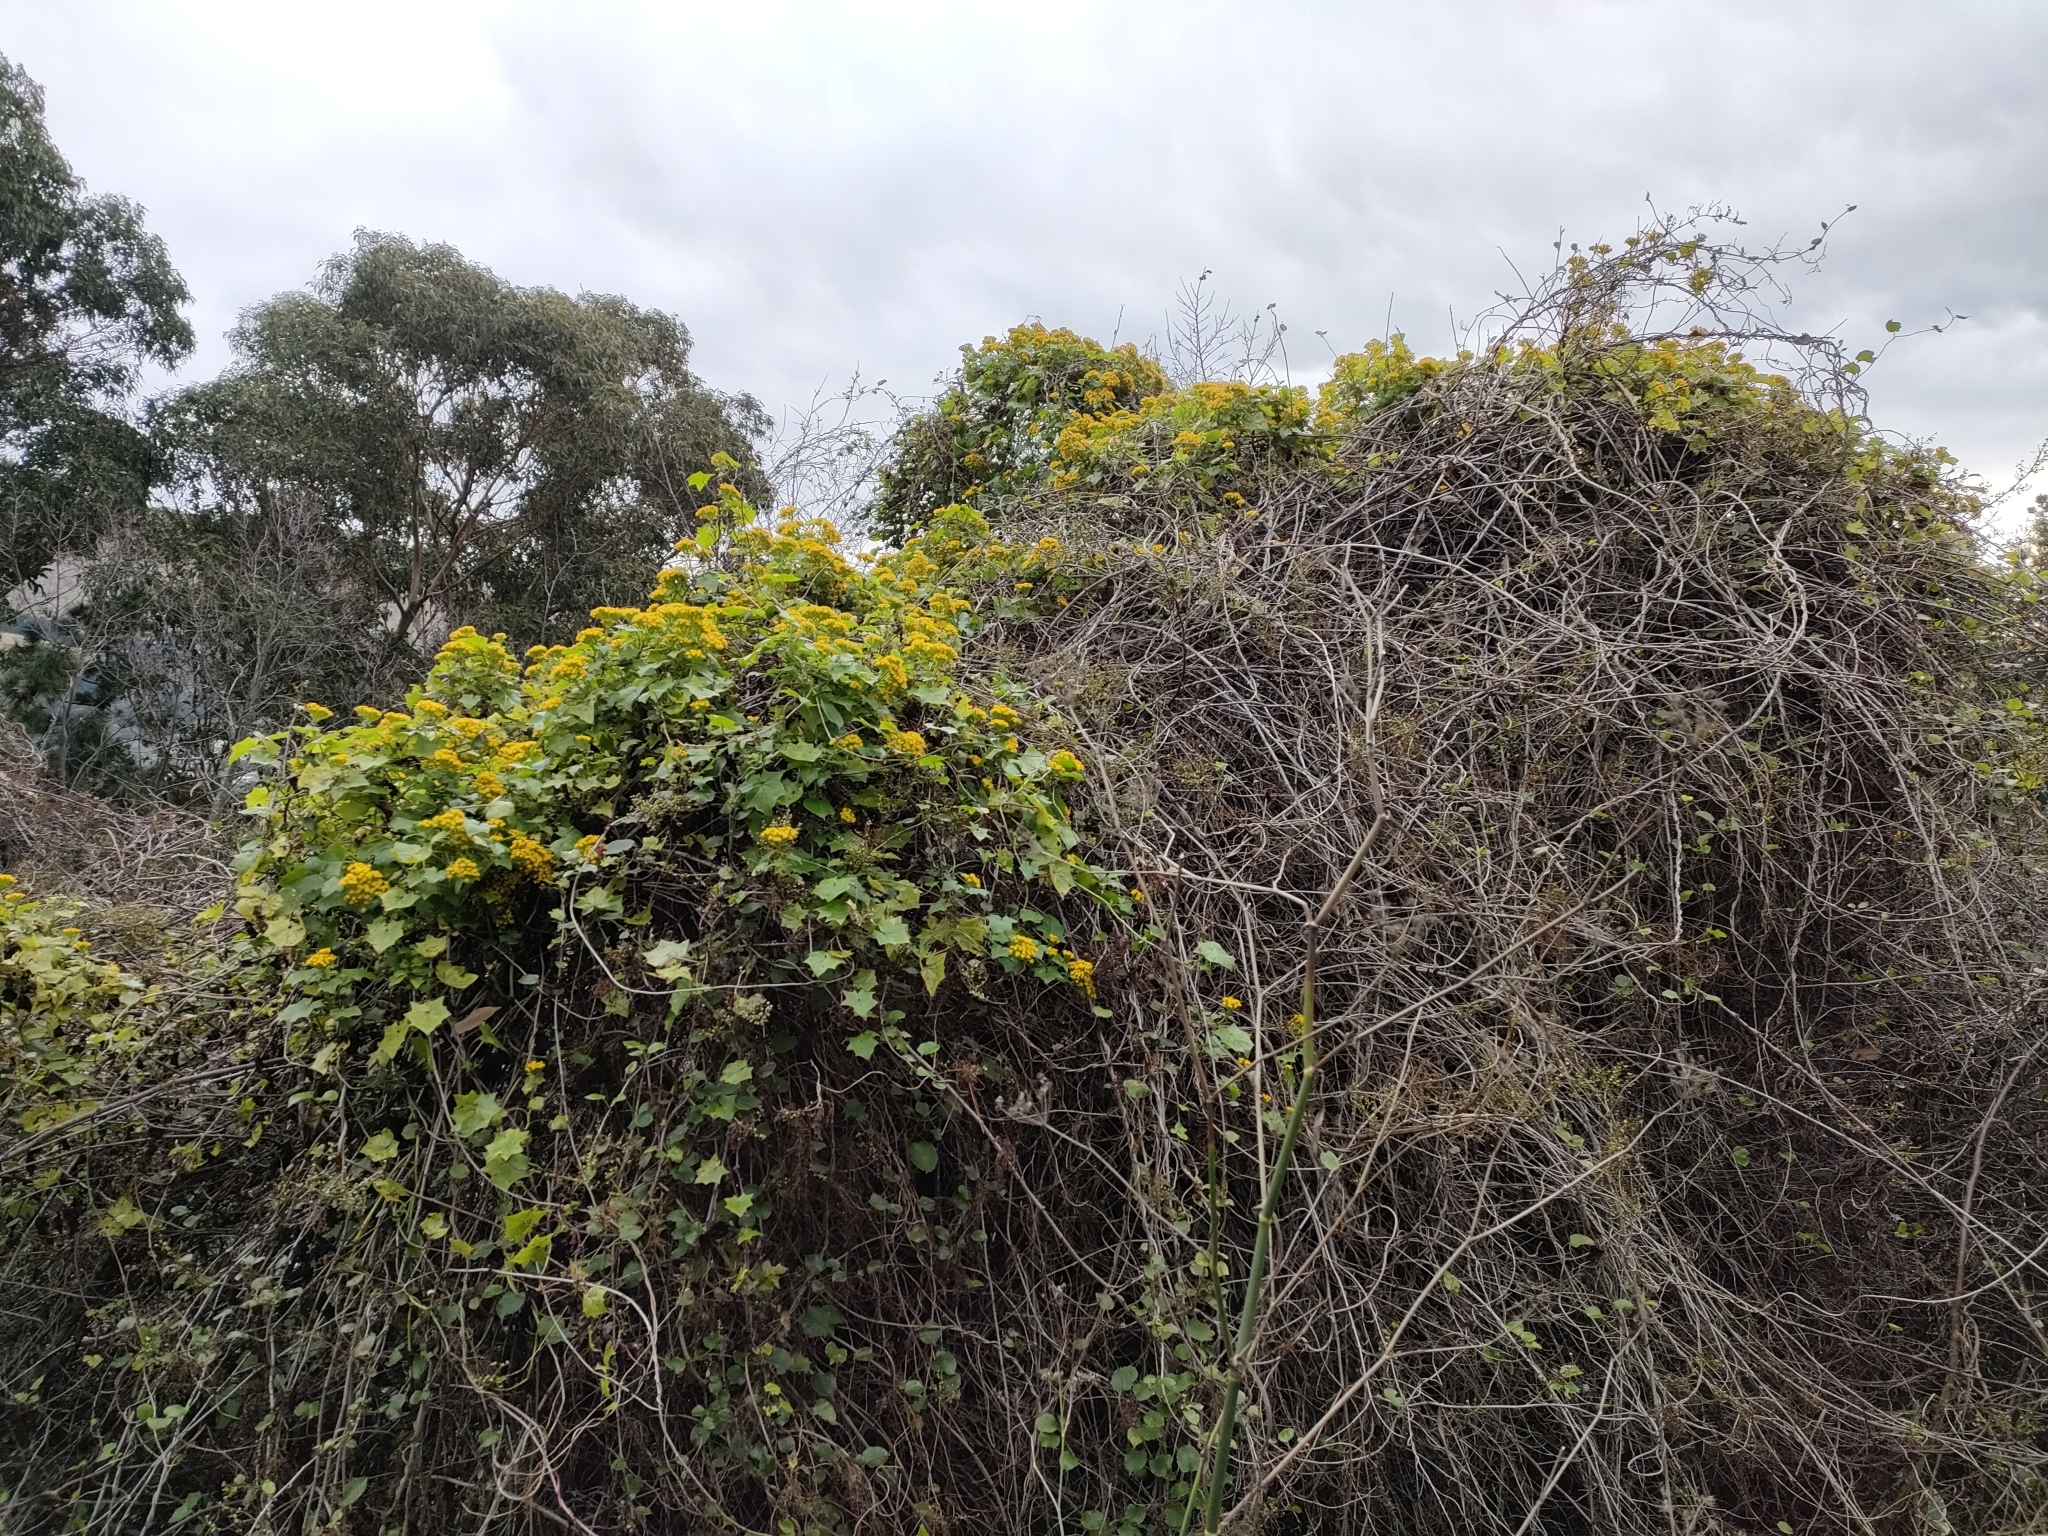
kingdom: Plantae
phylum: Tracheophyta
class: Magnoliopsida
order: Asterales
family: Asteraceae
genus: Delairea
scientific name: Delairea odorata
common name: Cape-ivy
